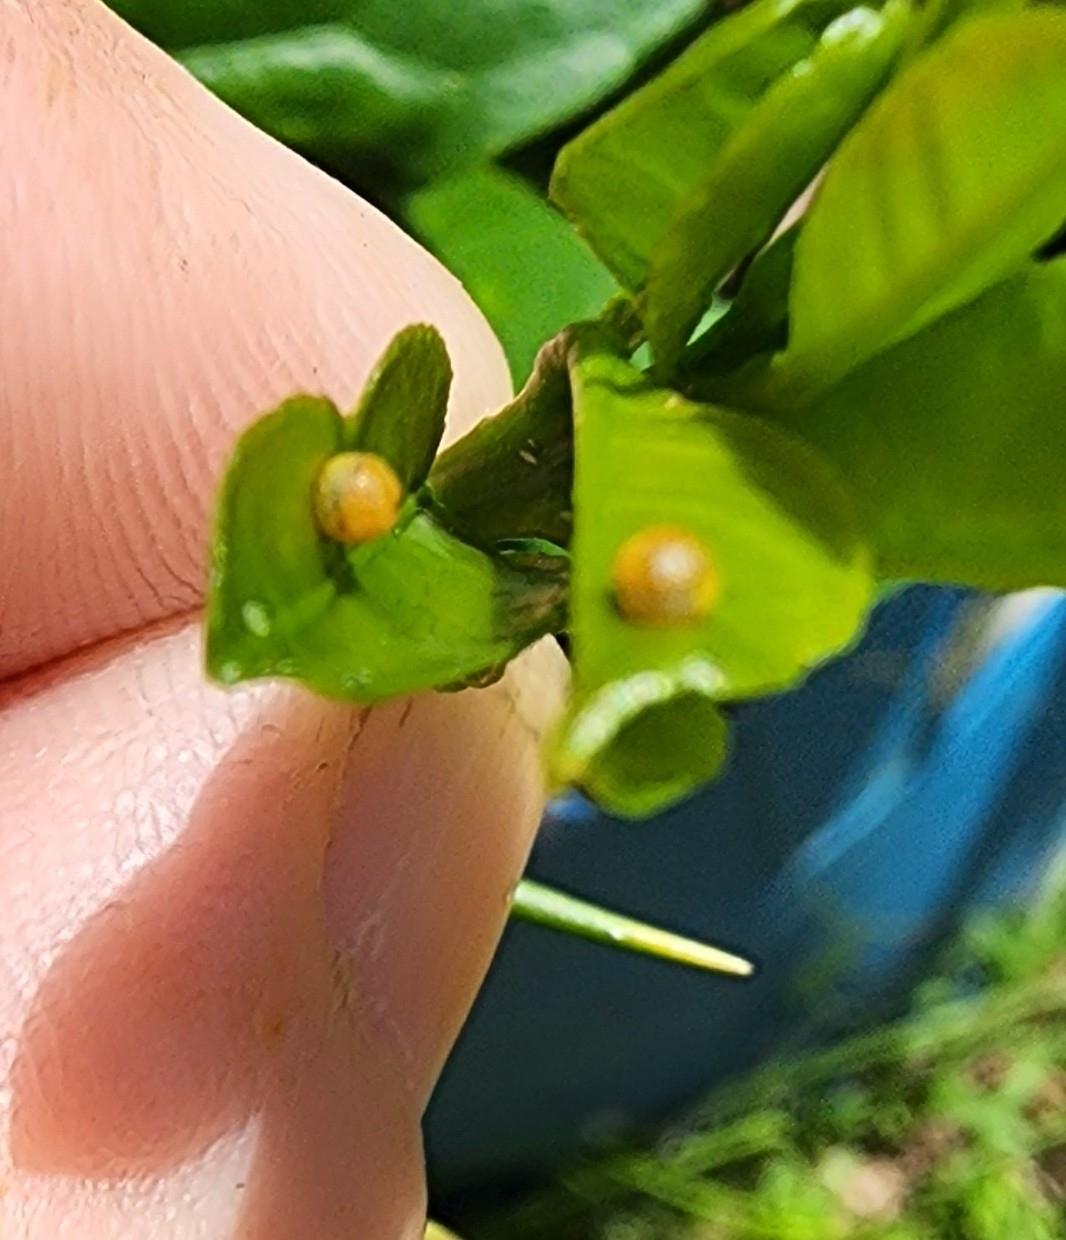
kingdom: Animalia
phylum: Arthropoda
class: Insecta
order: Lepidoptera
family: Papilionidae
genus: Papilio
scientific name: Papilio cresphontes
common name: Giant swallowtail
